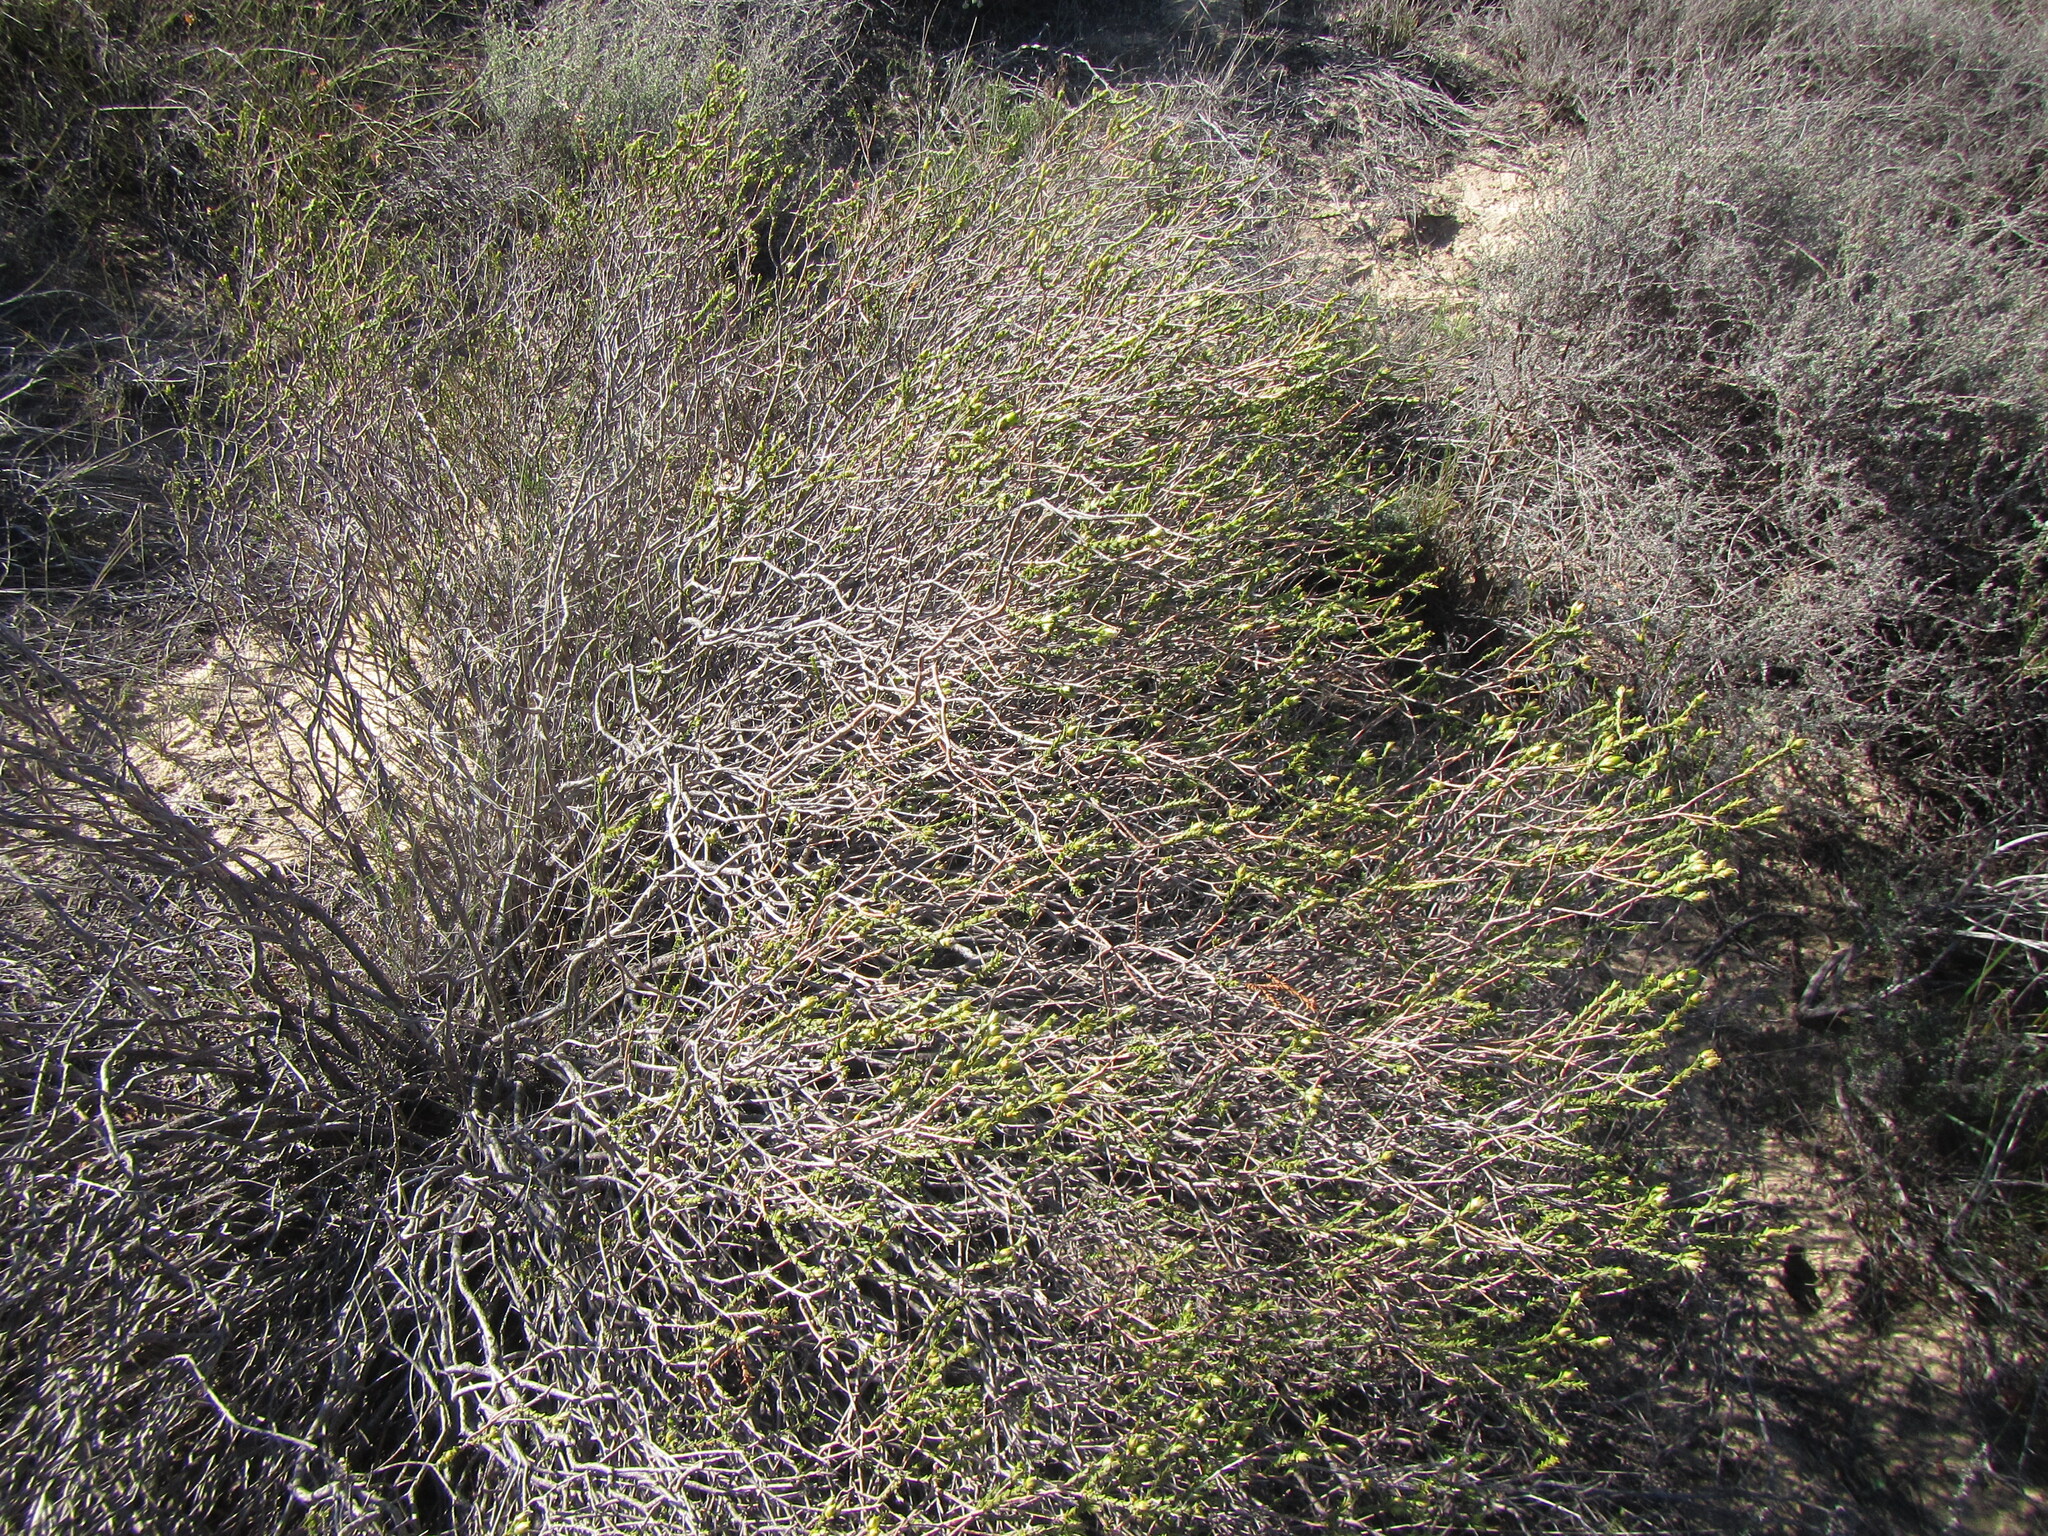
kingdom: Plantae
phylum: Tracheophyta
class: Magnoliopsida
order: Sapindales
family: Rutaceae
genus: Euchaetis
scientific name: Euchaetis pungens
